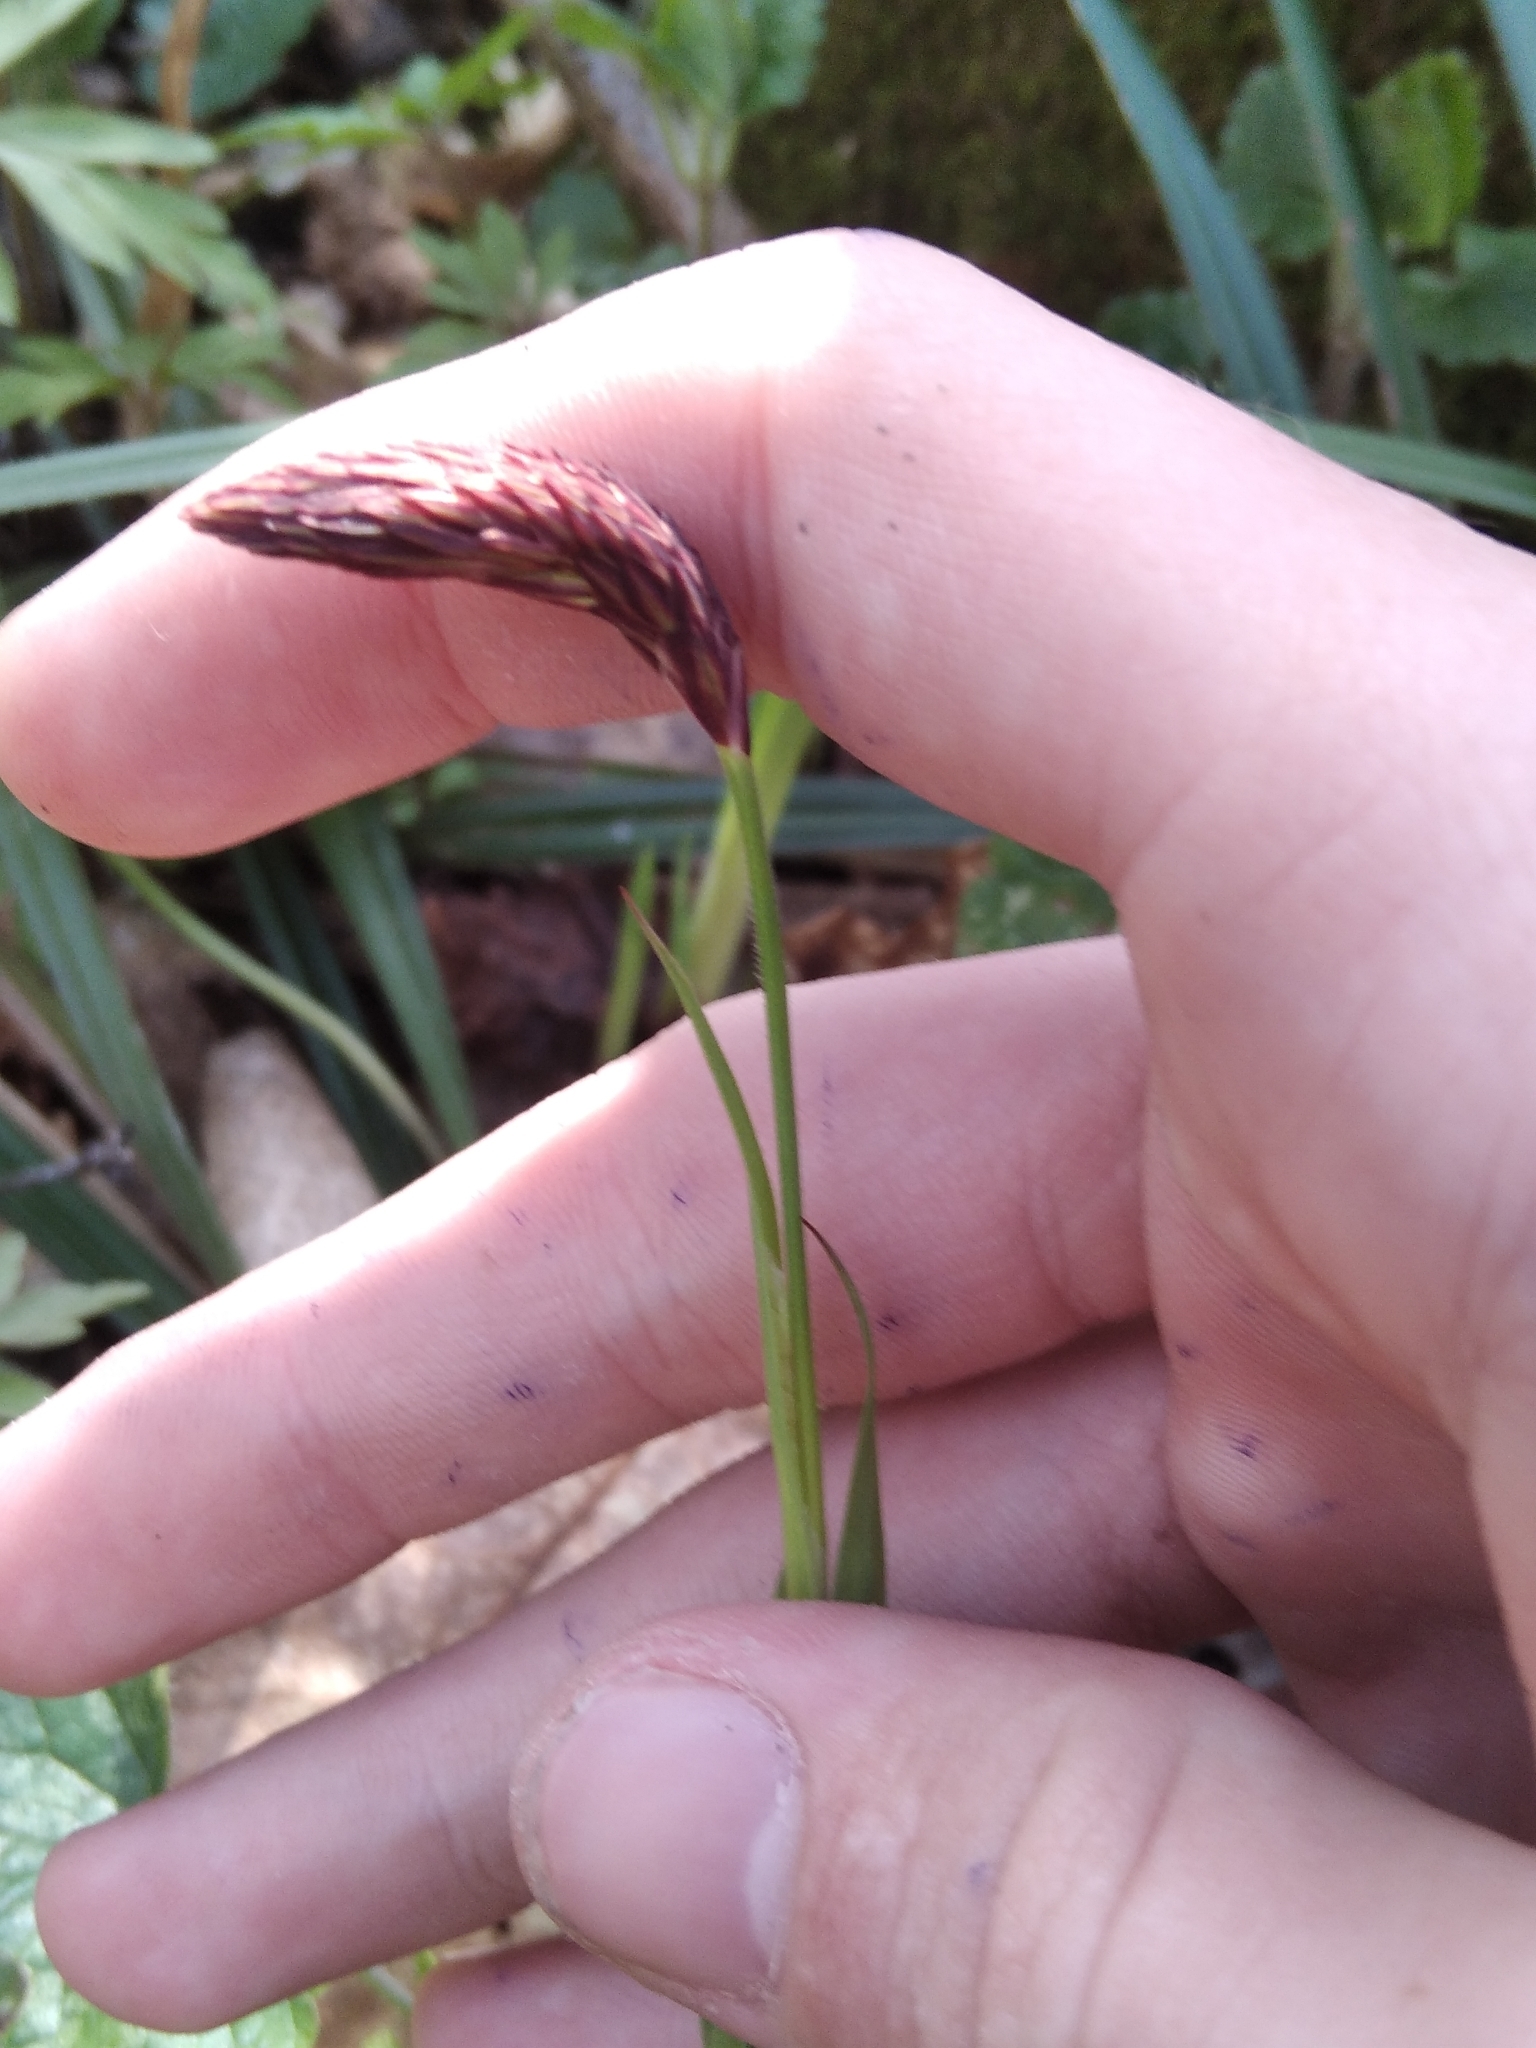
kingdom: Plantae
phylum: Tracheophyta
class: Liliopsida
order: Poales
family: Cyperaceae
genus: Carex
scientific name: Carex pilosa
